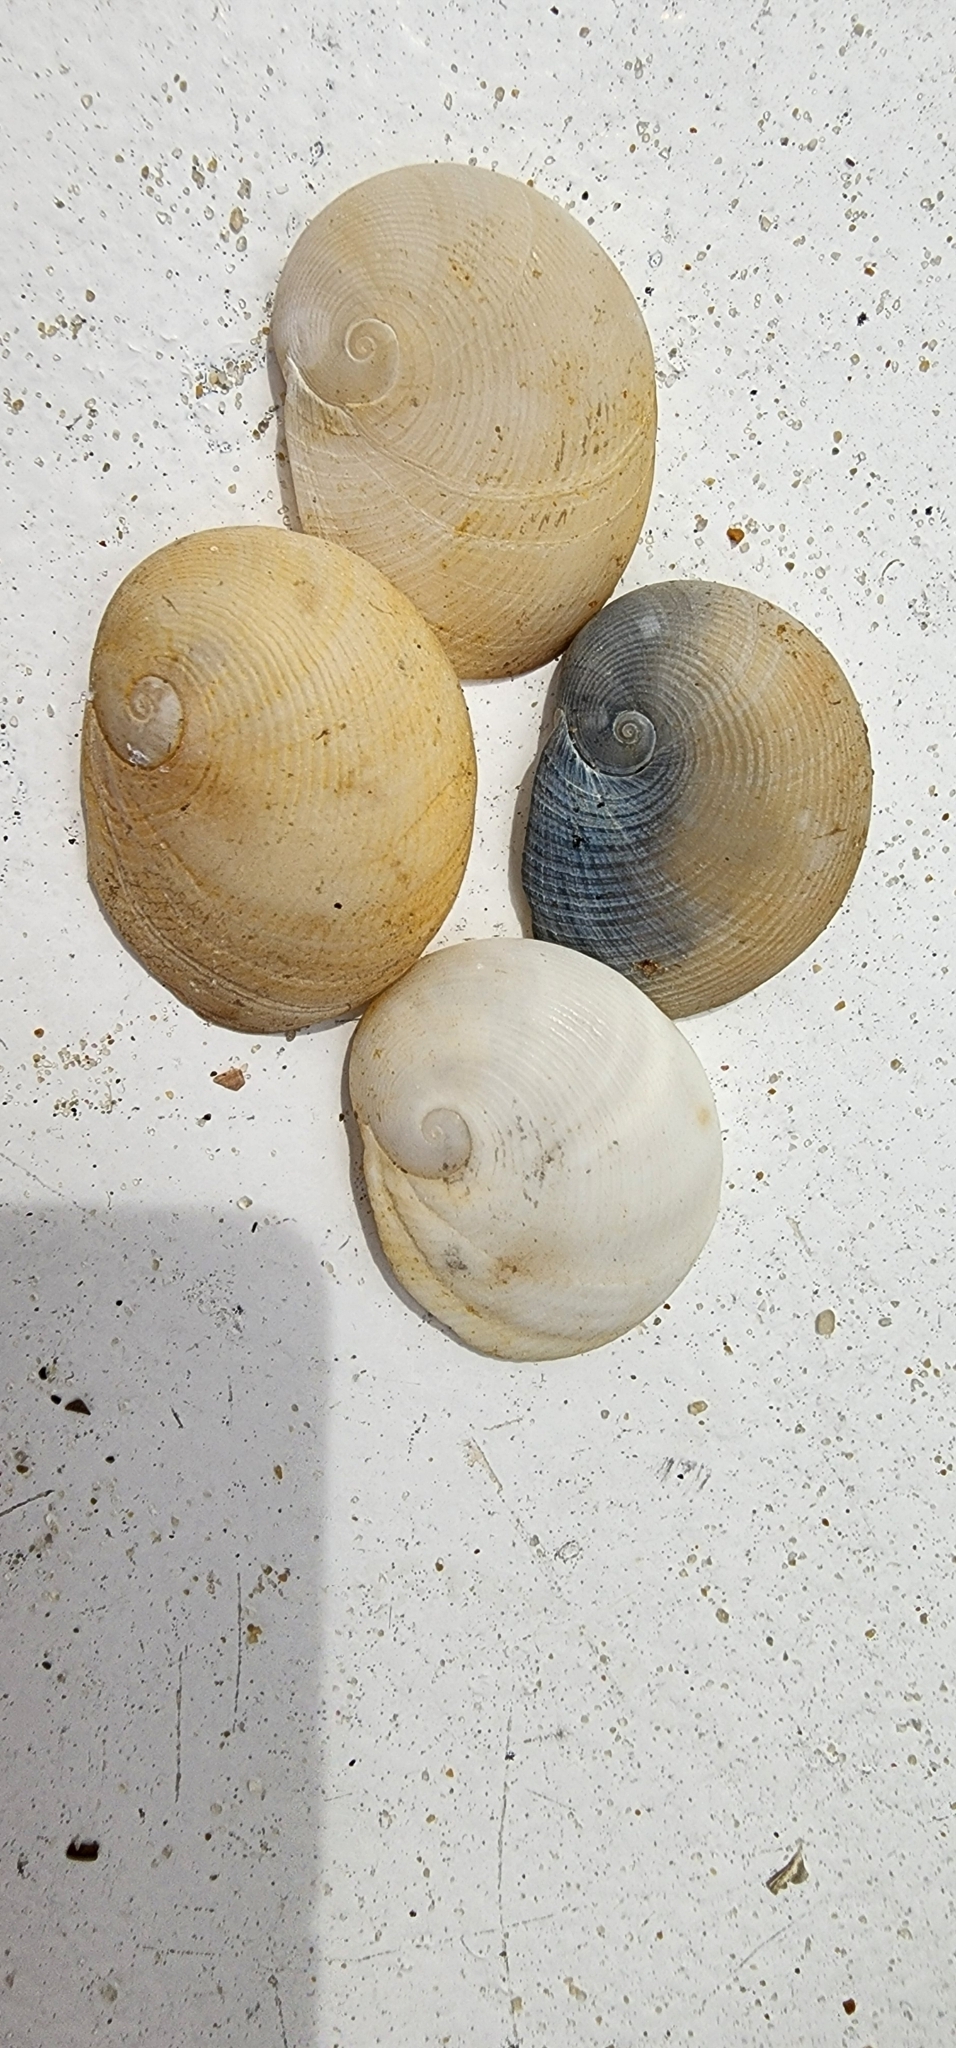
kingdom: Animalia
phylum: Mollusca
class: Gastropoda
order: Littorinimorpha
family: Naticidae
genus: Sinum
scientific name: Sinum perspectivum
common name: White baby ear
